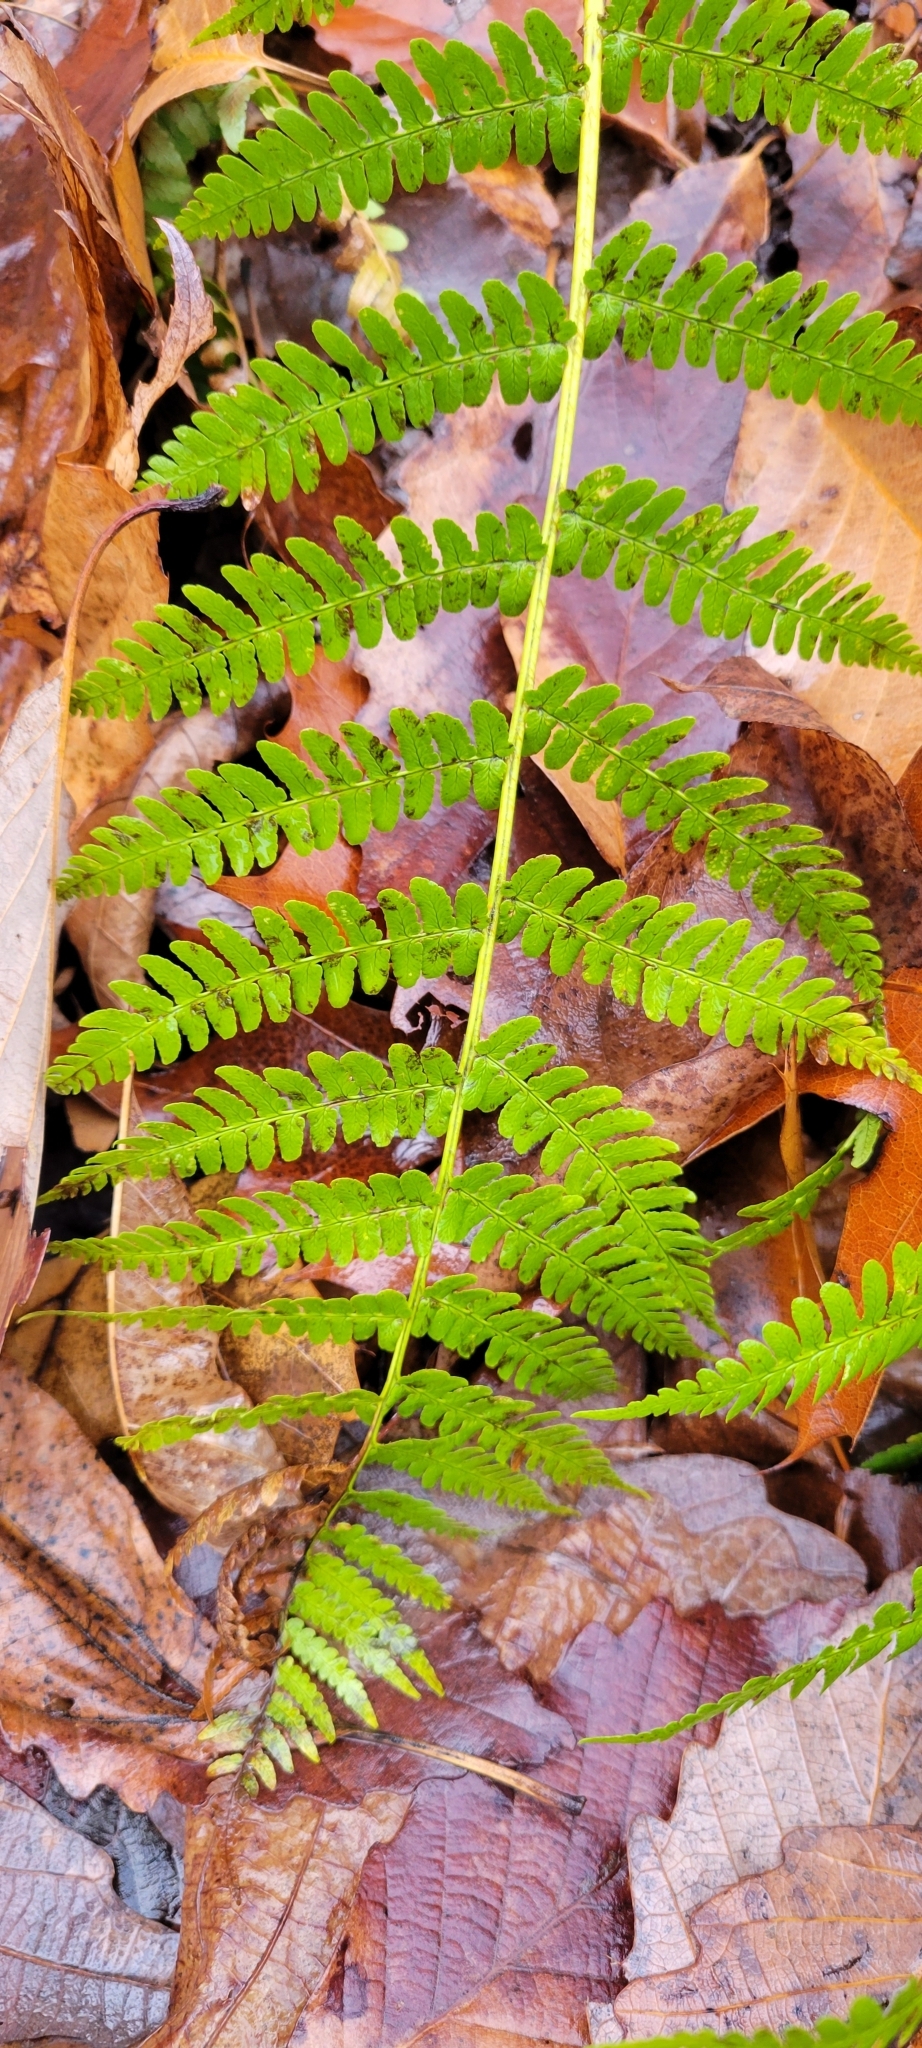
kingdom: Plantae
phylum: Tracheophyta
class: Polypodiopsida
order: Polypodiales
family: Dryopteridaceae
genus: Dryopteris
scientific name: Dryopteris marginalis
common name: Marginal wood fern
